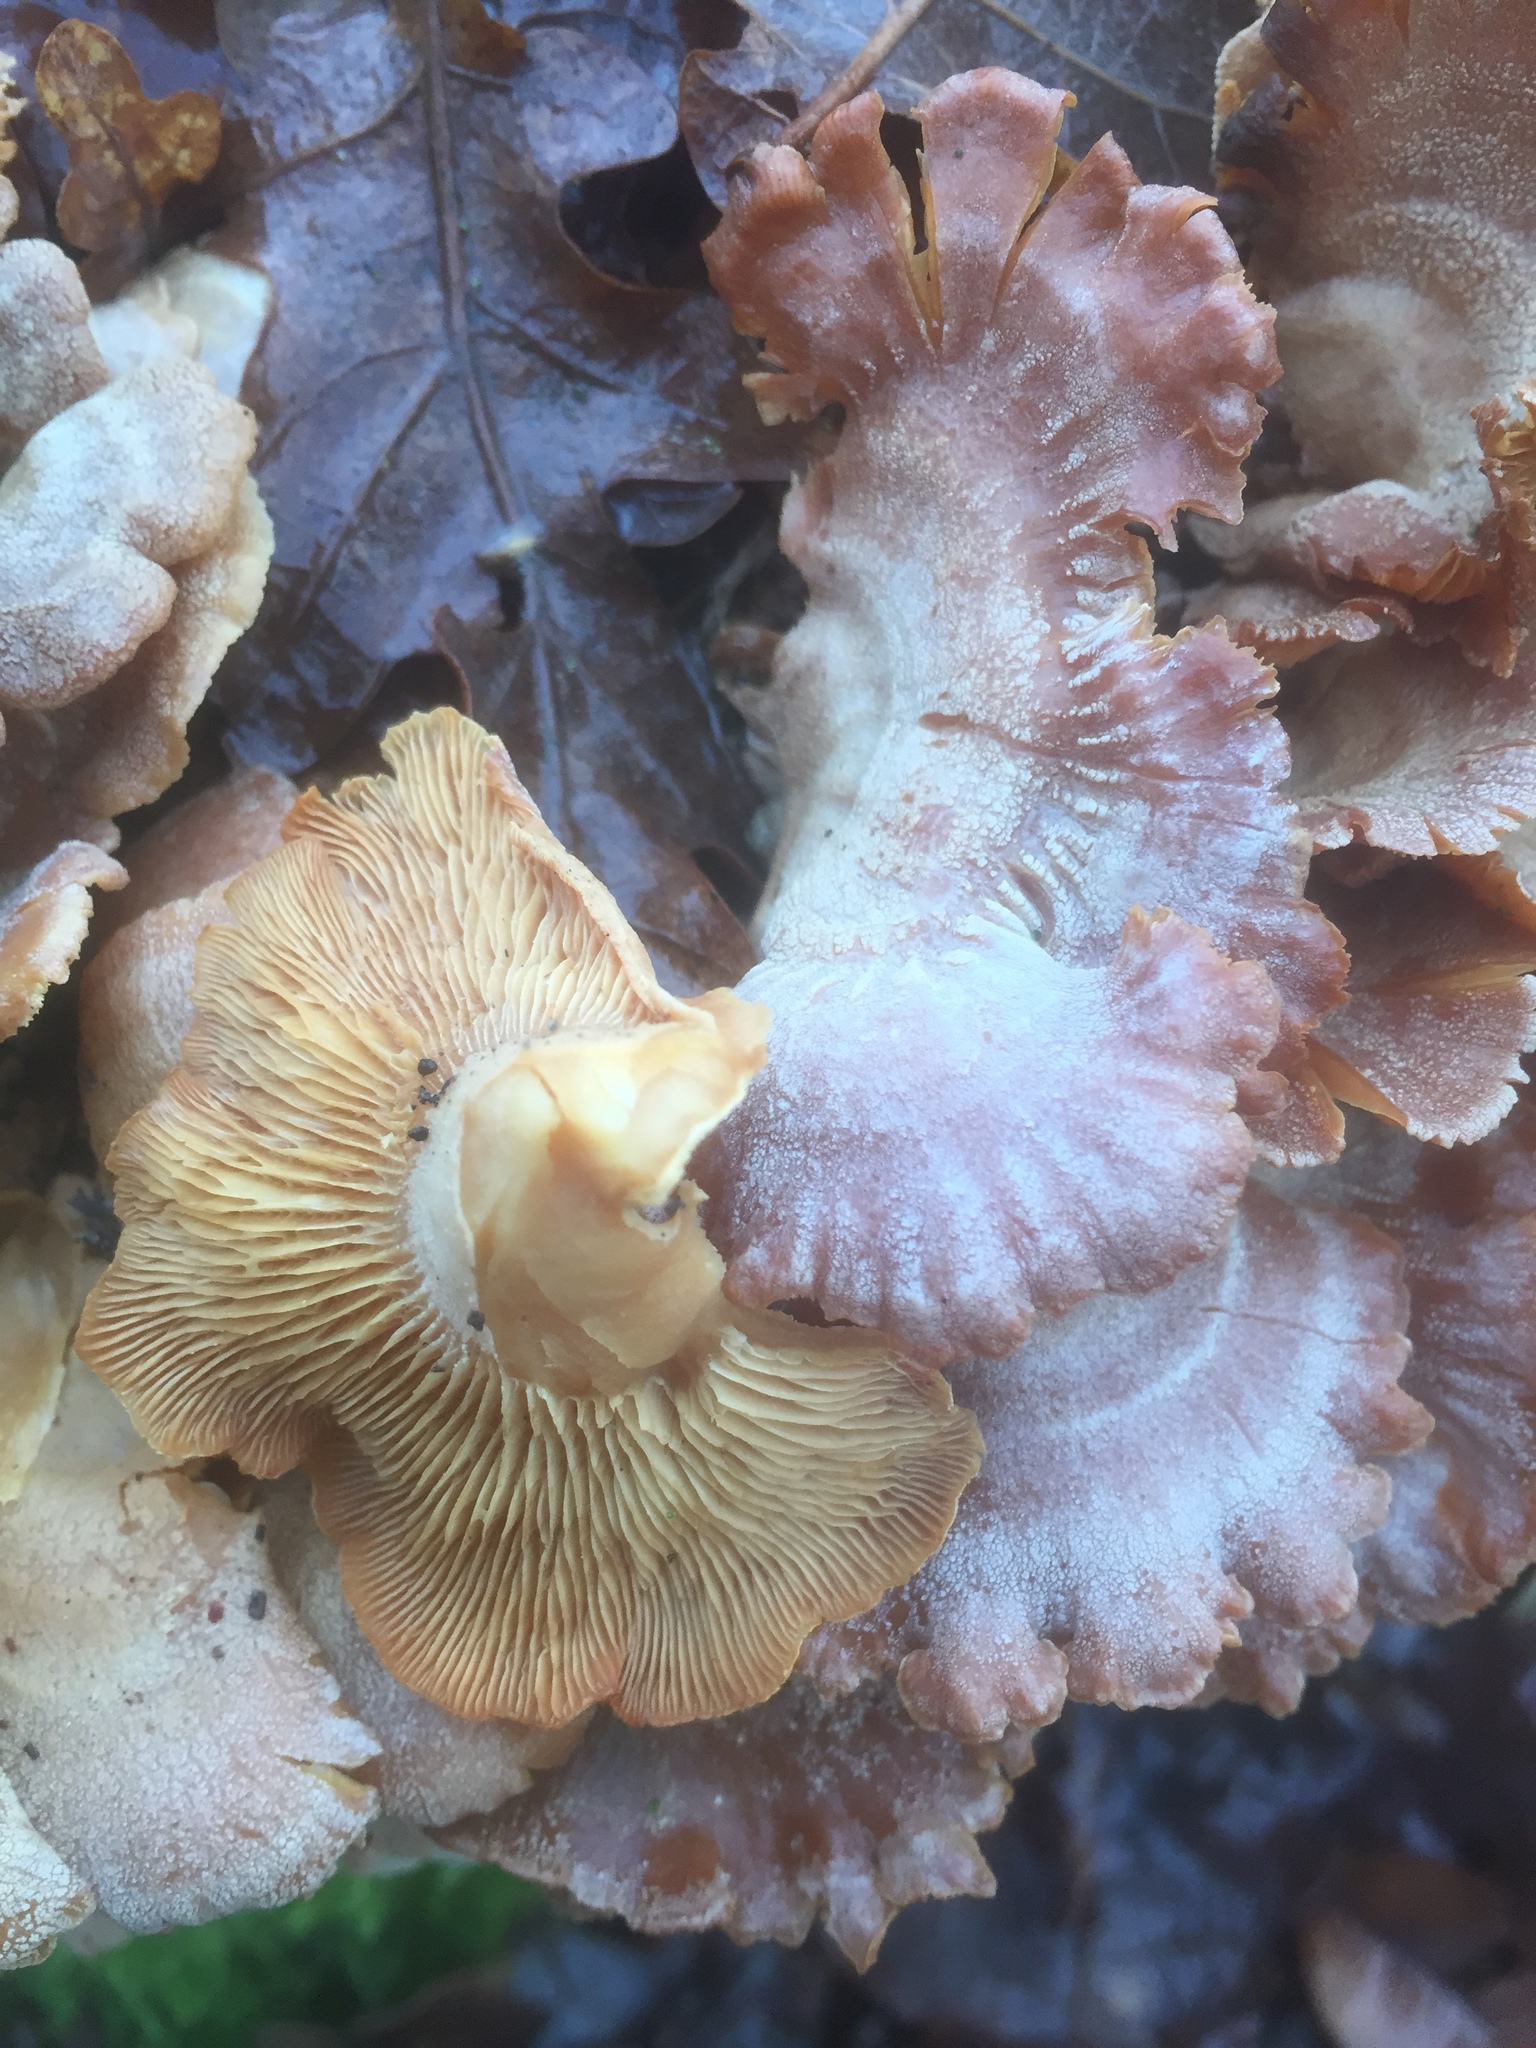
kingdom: Fungi
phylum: Basidiomycota
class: Agaricomycetes
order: Agaricales
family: Mycenaceae
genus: Panellus
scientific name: Panellus stipticus
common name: Bitter oysterling
